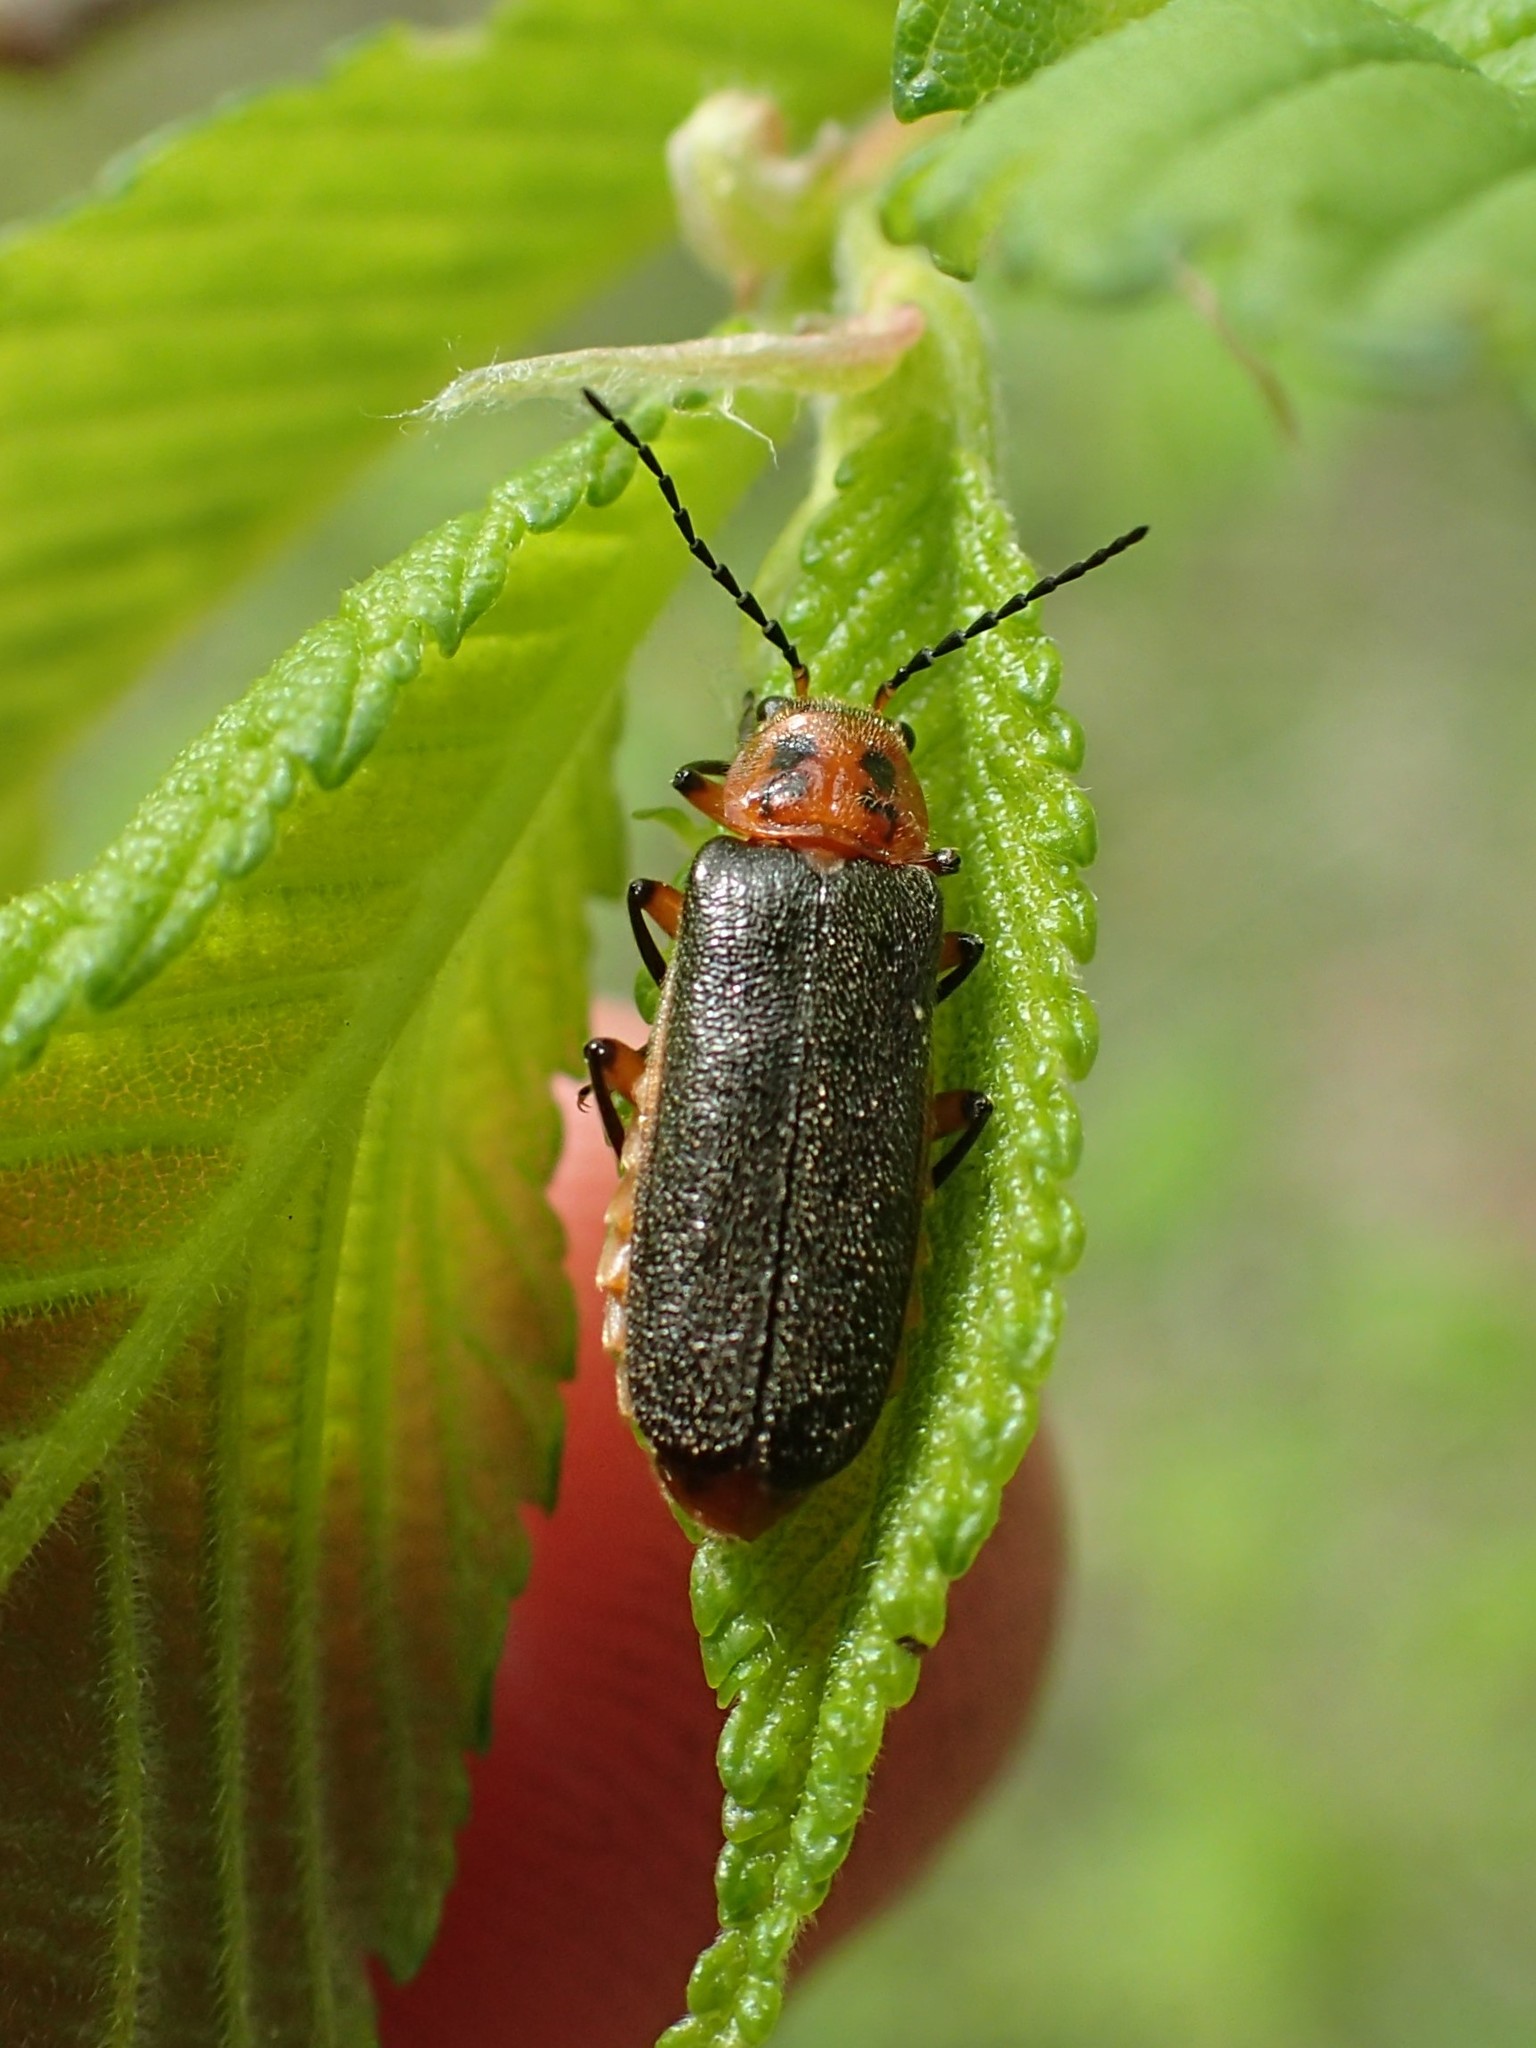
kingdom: Animalia
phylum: Arthropoda
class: Insecta
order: Coleoptera
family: Cantharidae
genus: Atalantycha
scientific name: Atalantycha bilineata
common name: Two-lined leatherwing
